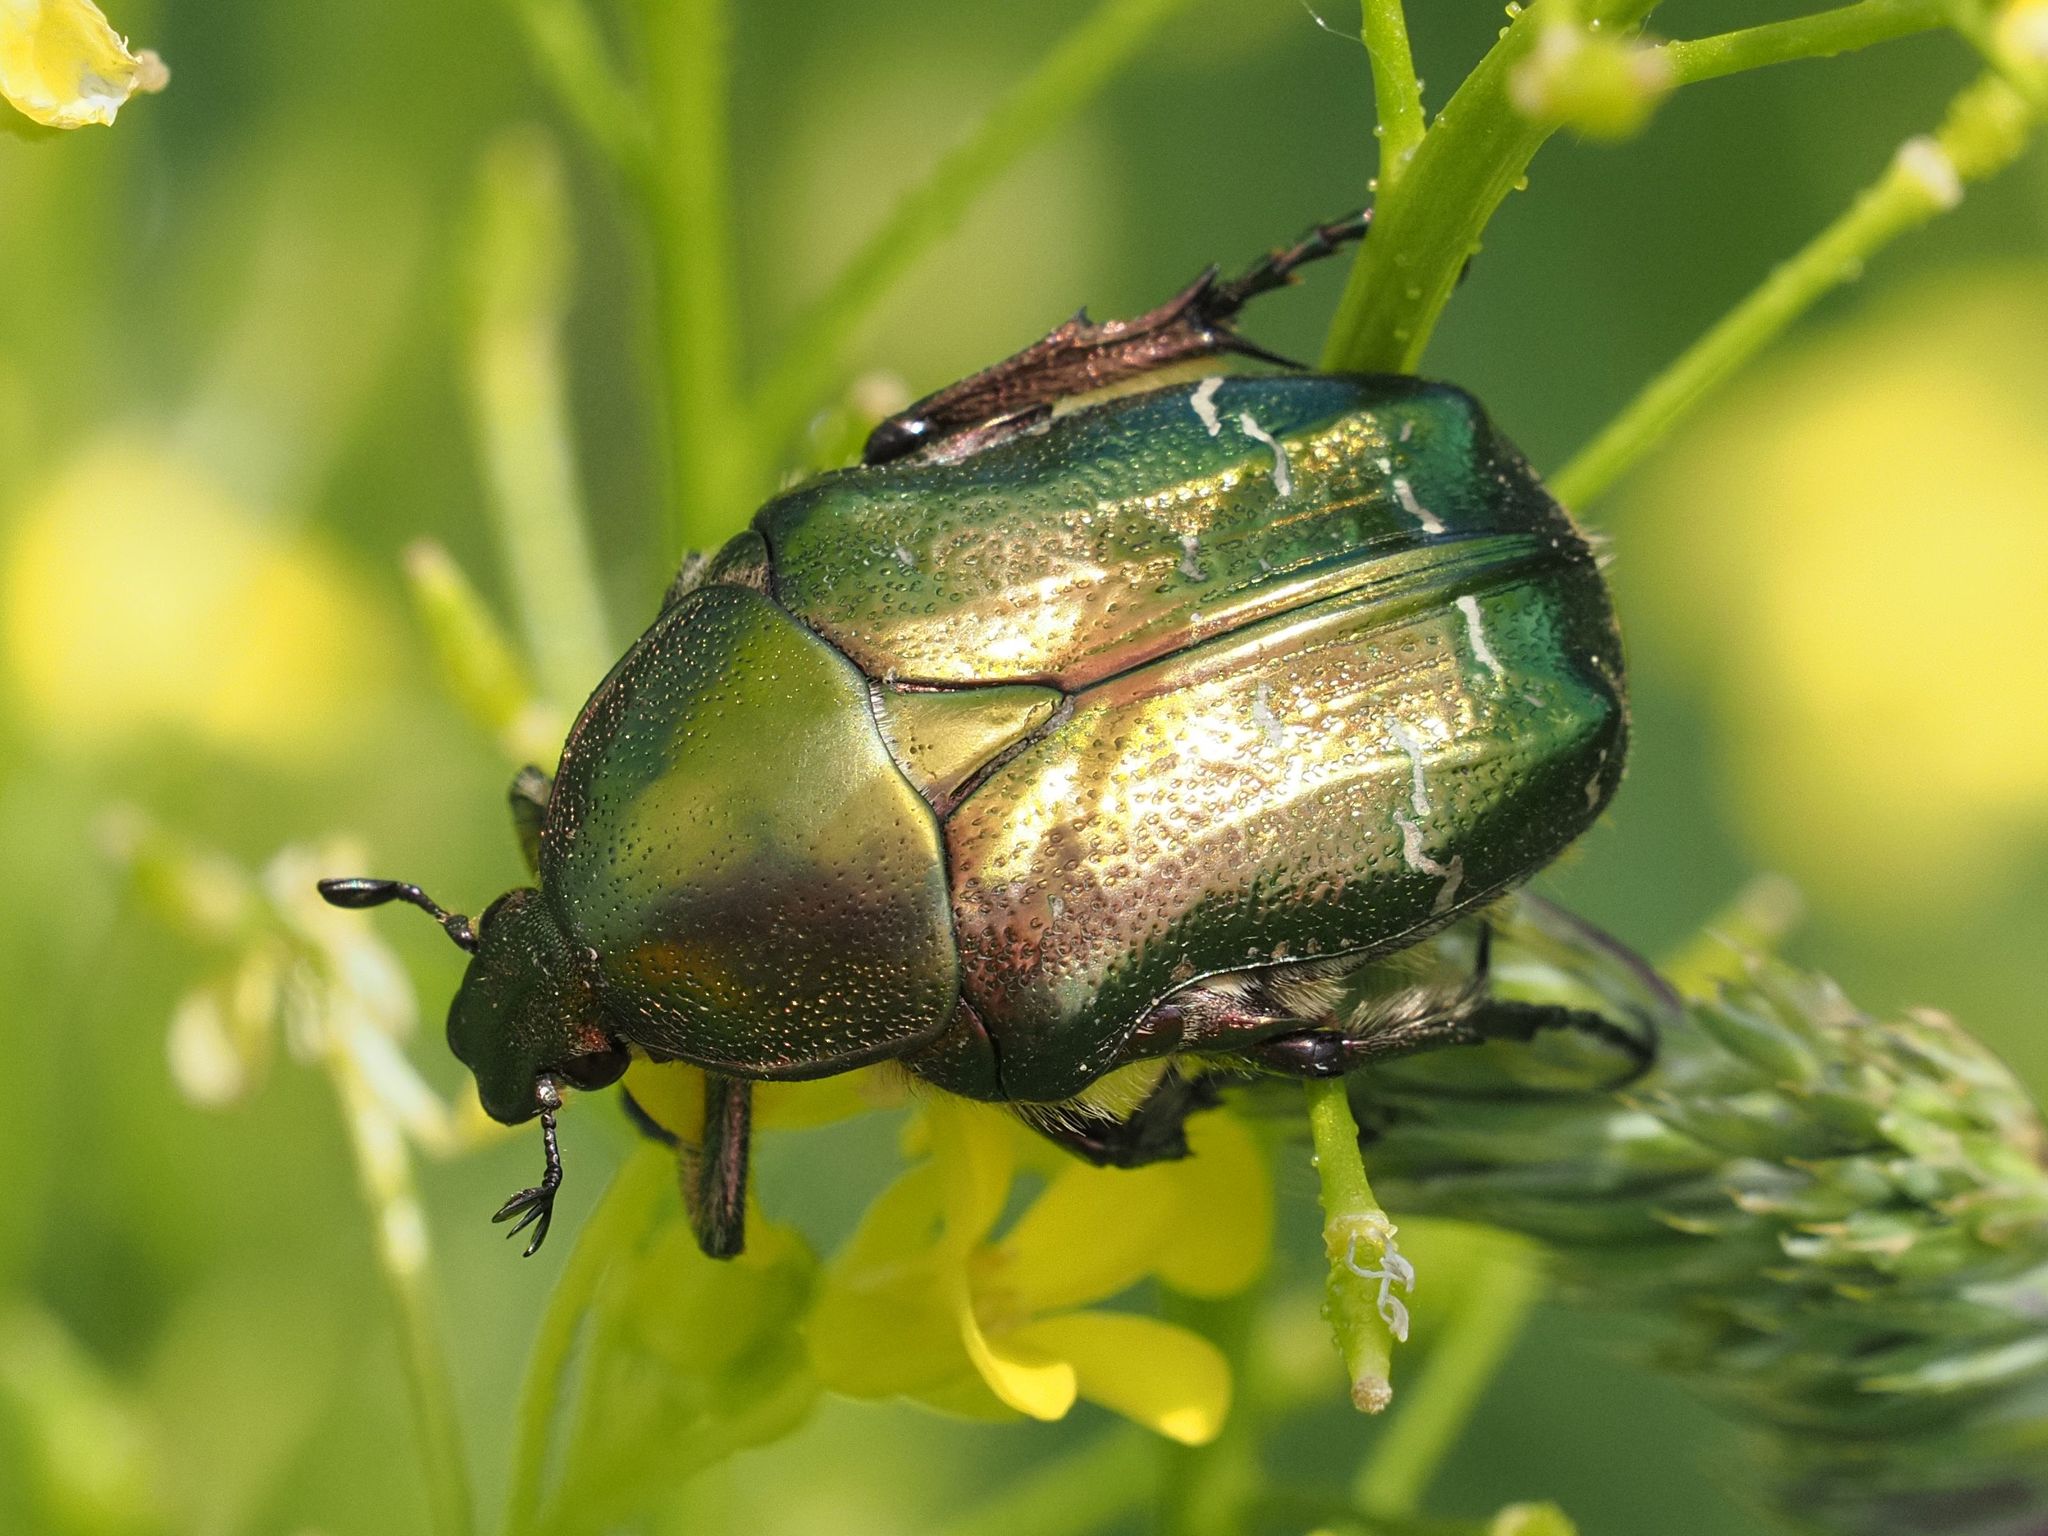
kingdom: Animalia
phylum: Arthropoda
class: Insecta
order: Coleoptera
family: Scarabaeidae
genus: Cetonia
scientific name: Cetonia aurata
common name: Rose chafer
